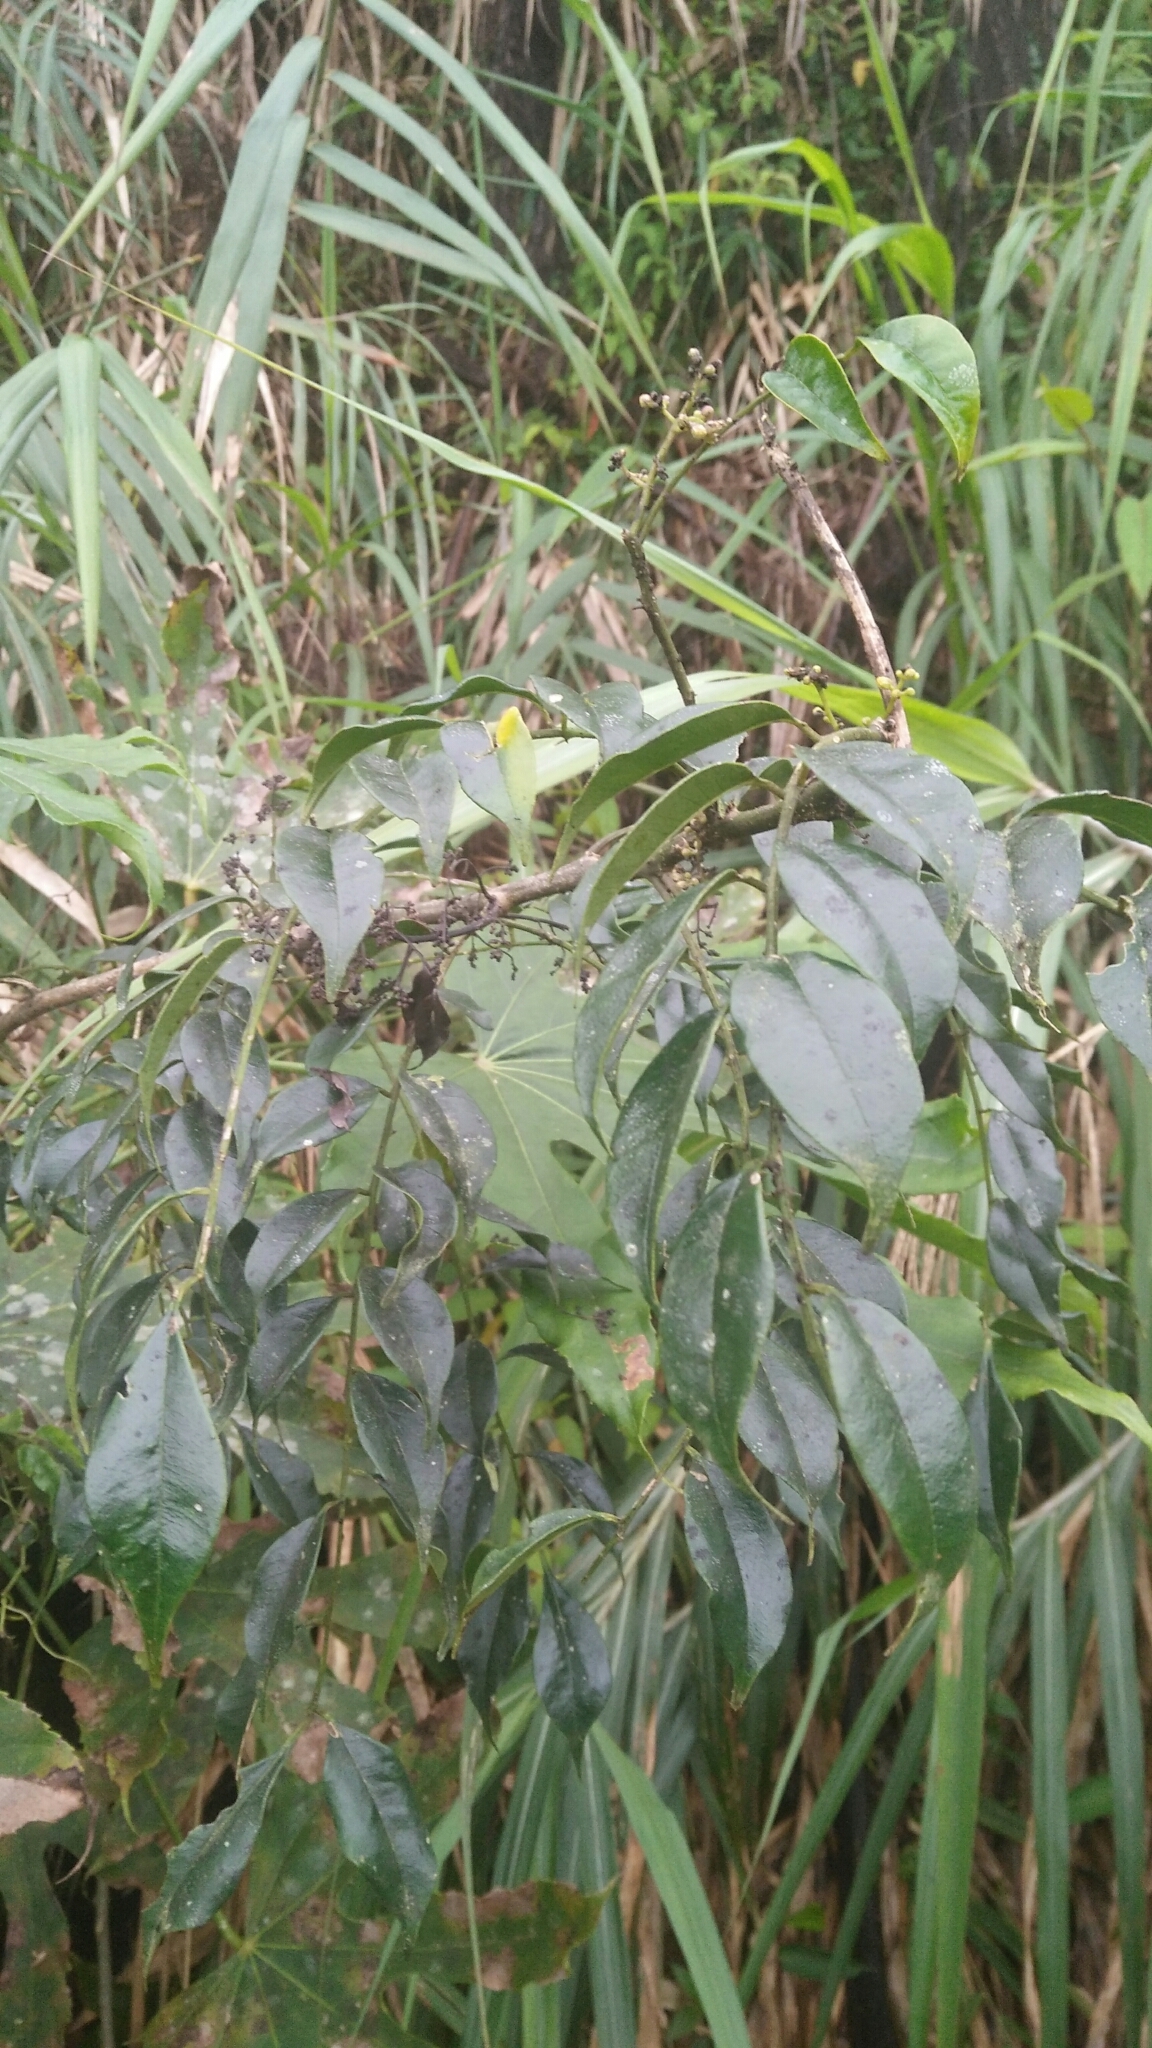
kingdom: Plantae
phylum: Tracheophyta
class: Magnoliopsida
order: Sapindales
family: Rutaceae
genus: Zanthoxylum
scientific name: Zanthoxylum scandens
